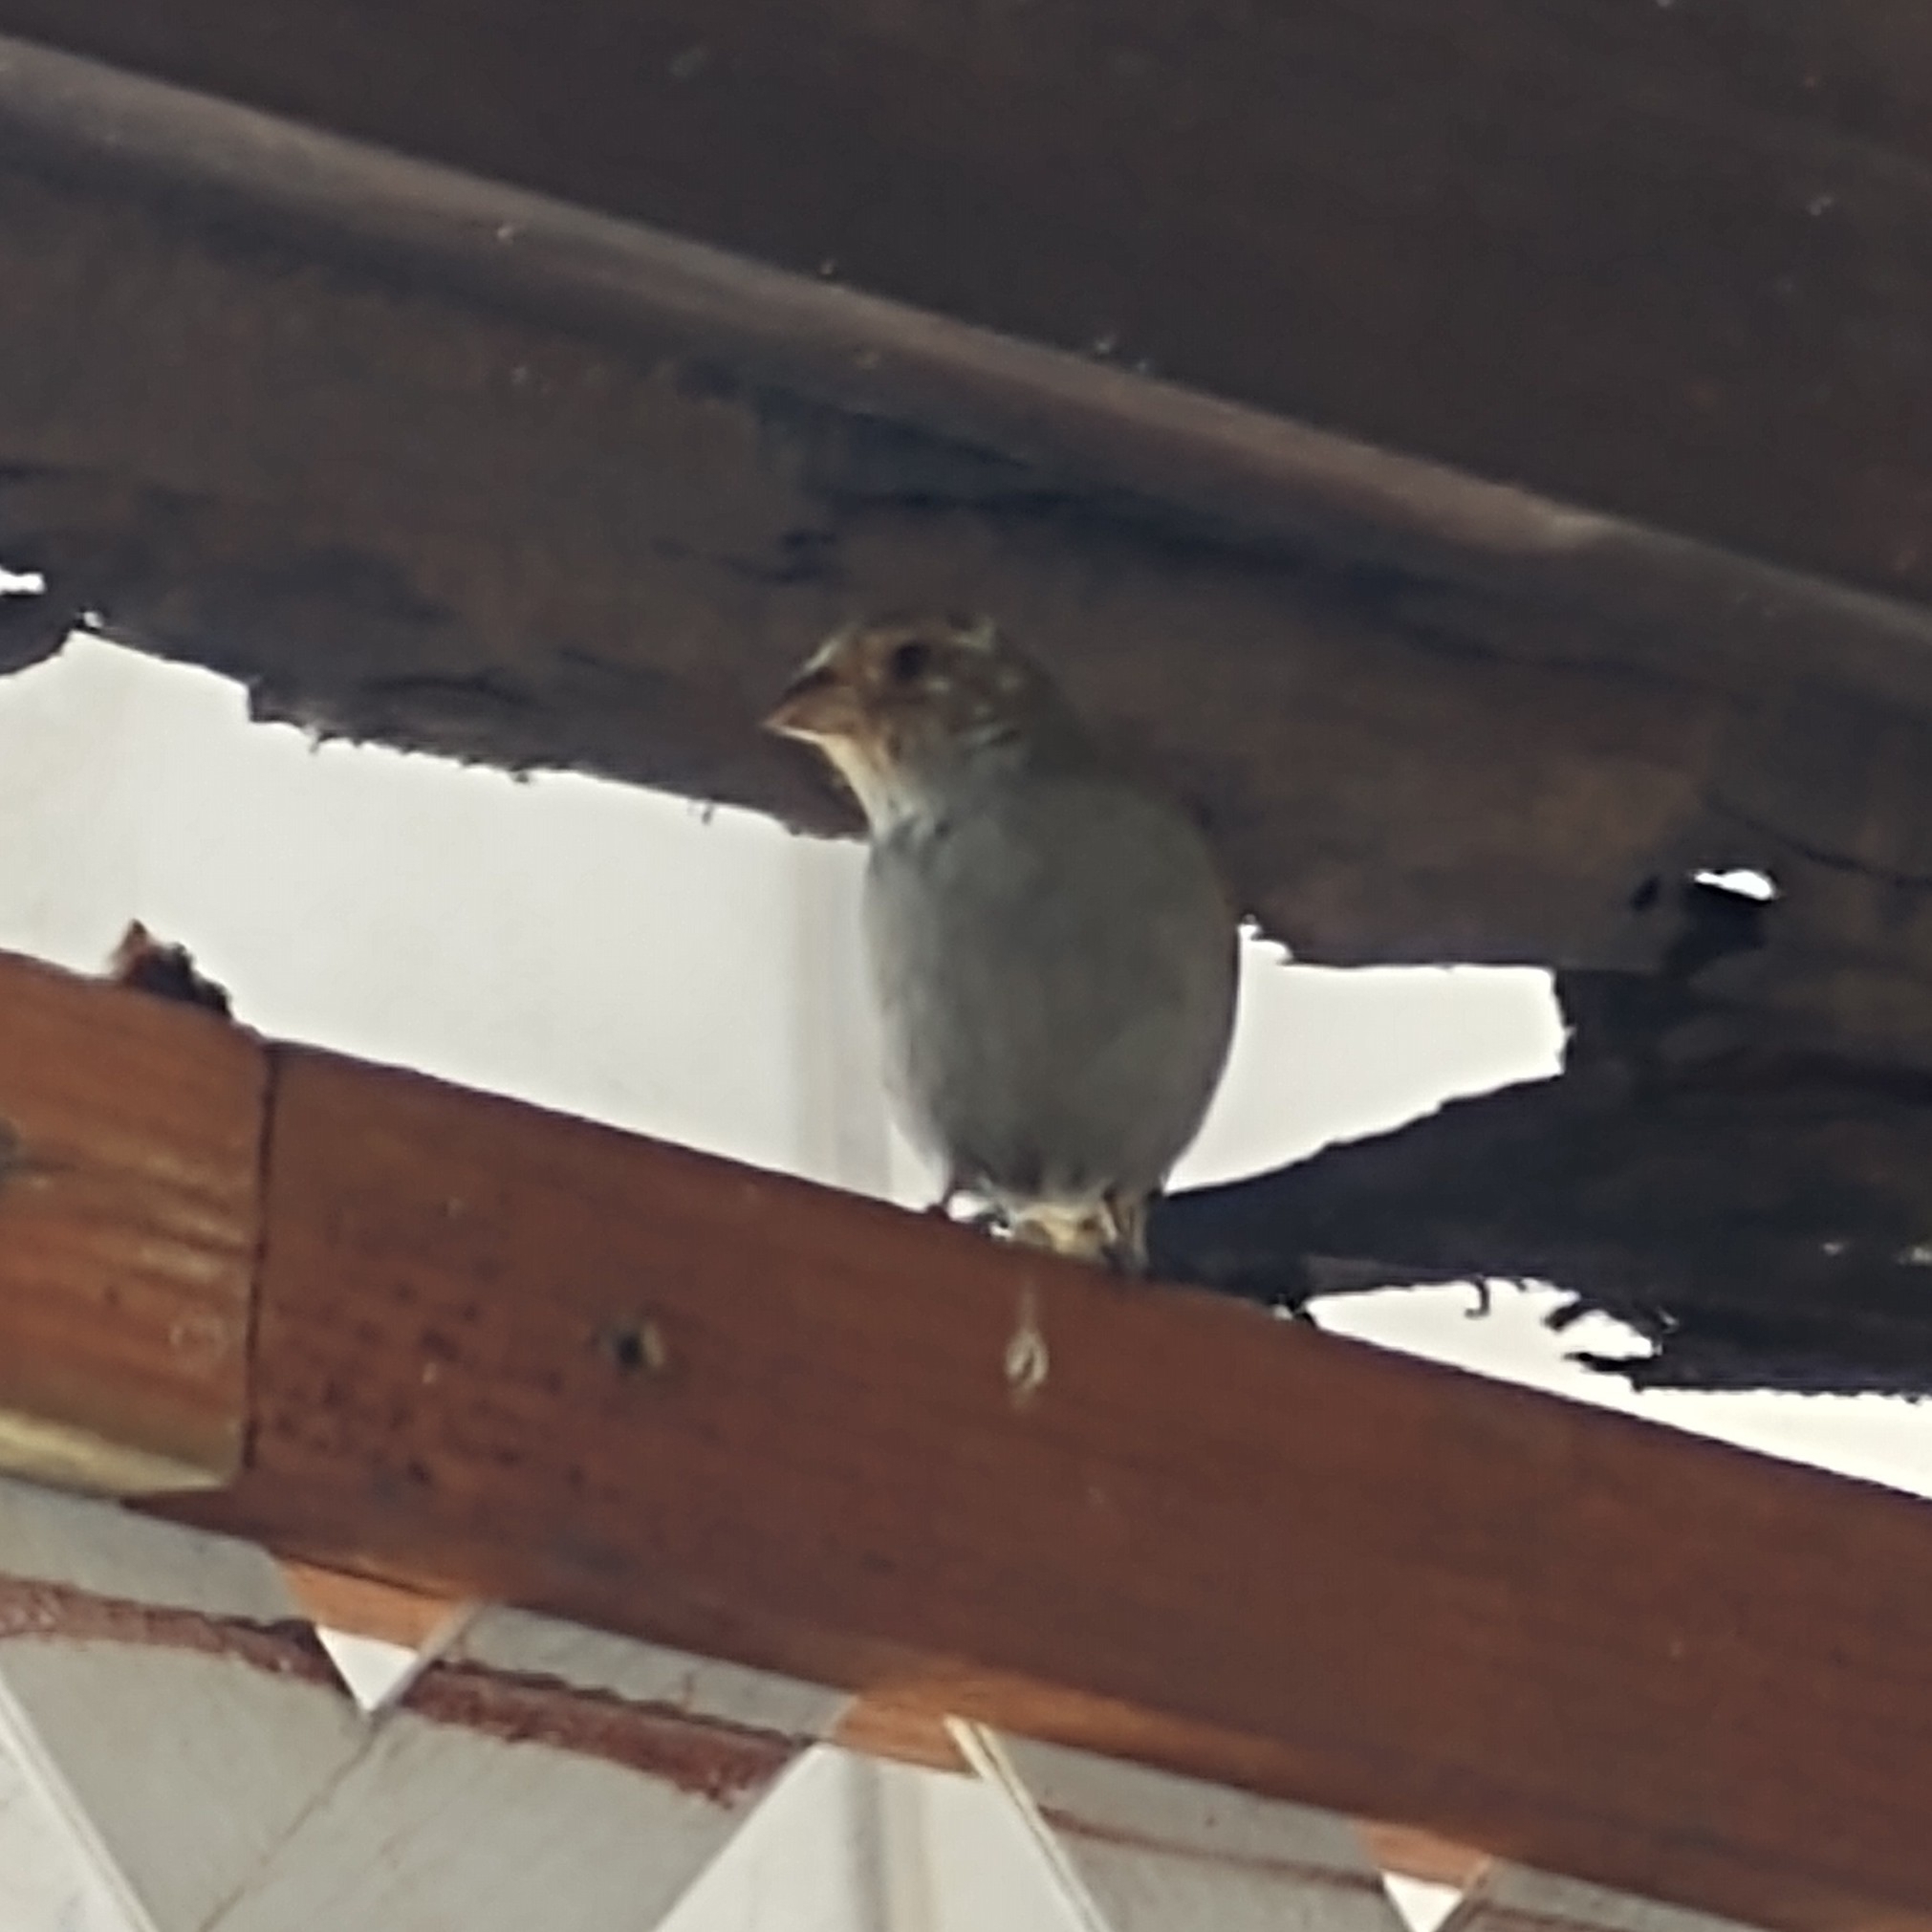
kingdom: Animalia
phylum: Chordata
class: Aves
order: Passeriformes
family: Thraupidae
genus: Loxigilla
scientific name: Loxigilla noctis
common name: Lesser antillean bullfinch
